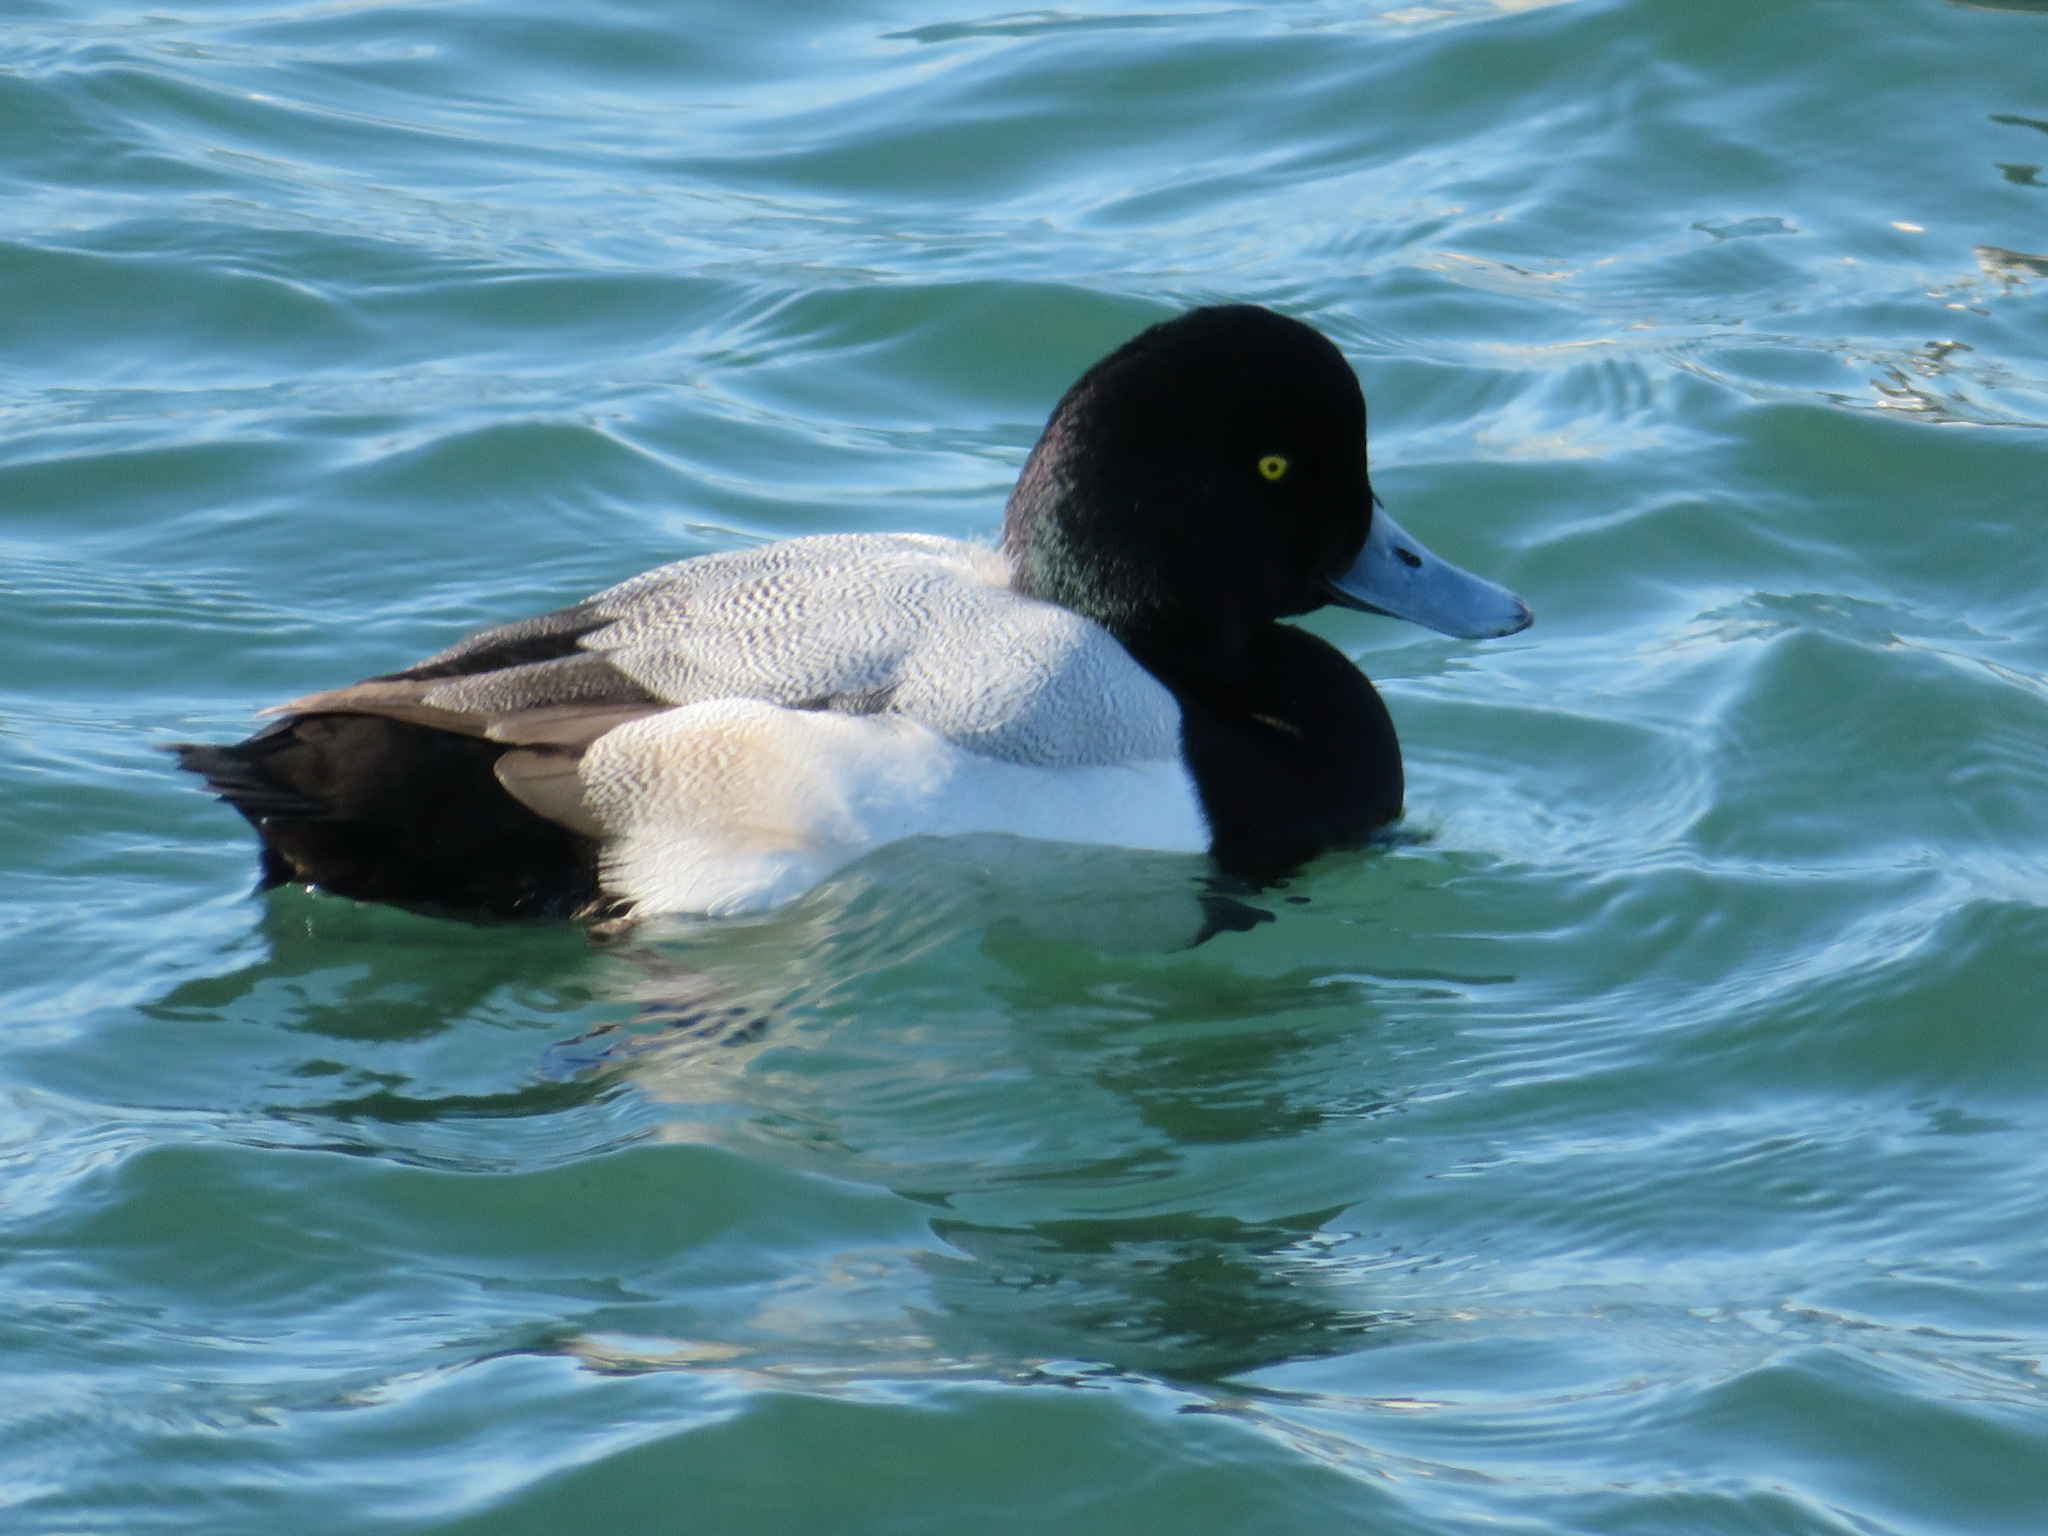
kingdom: Animalia
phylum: Chordata
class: Aves
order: Anseriformes
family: Anatidae
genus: Aythya
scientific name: Aythya marila
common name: Greater scaup
